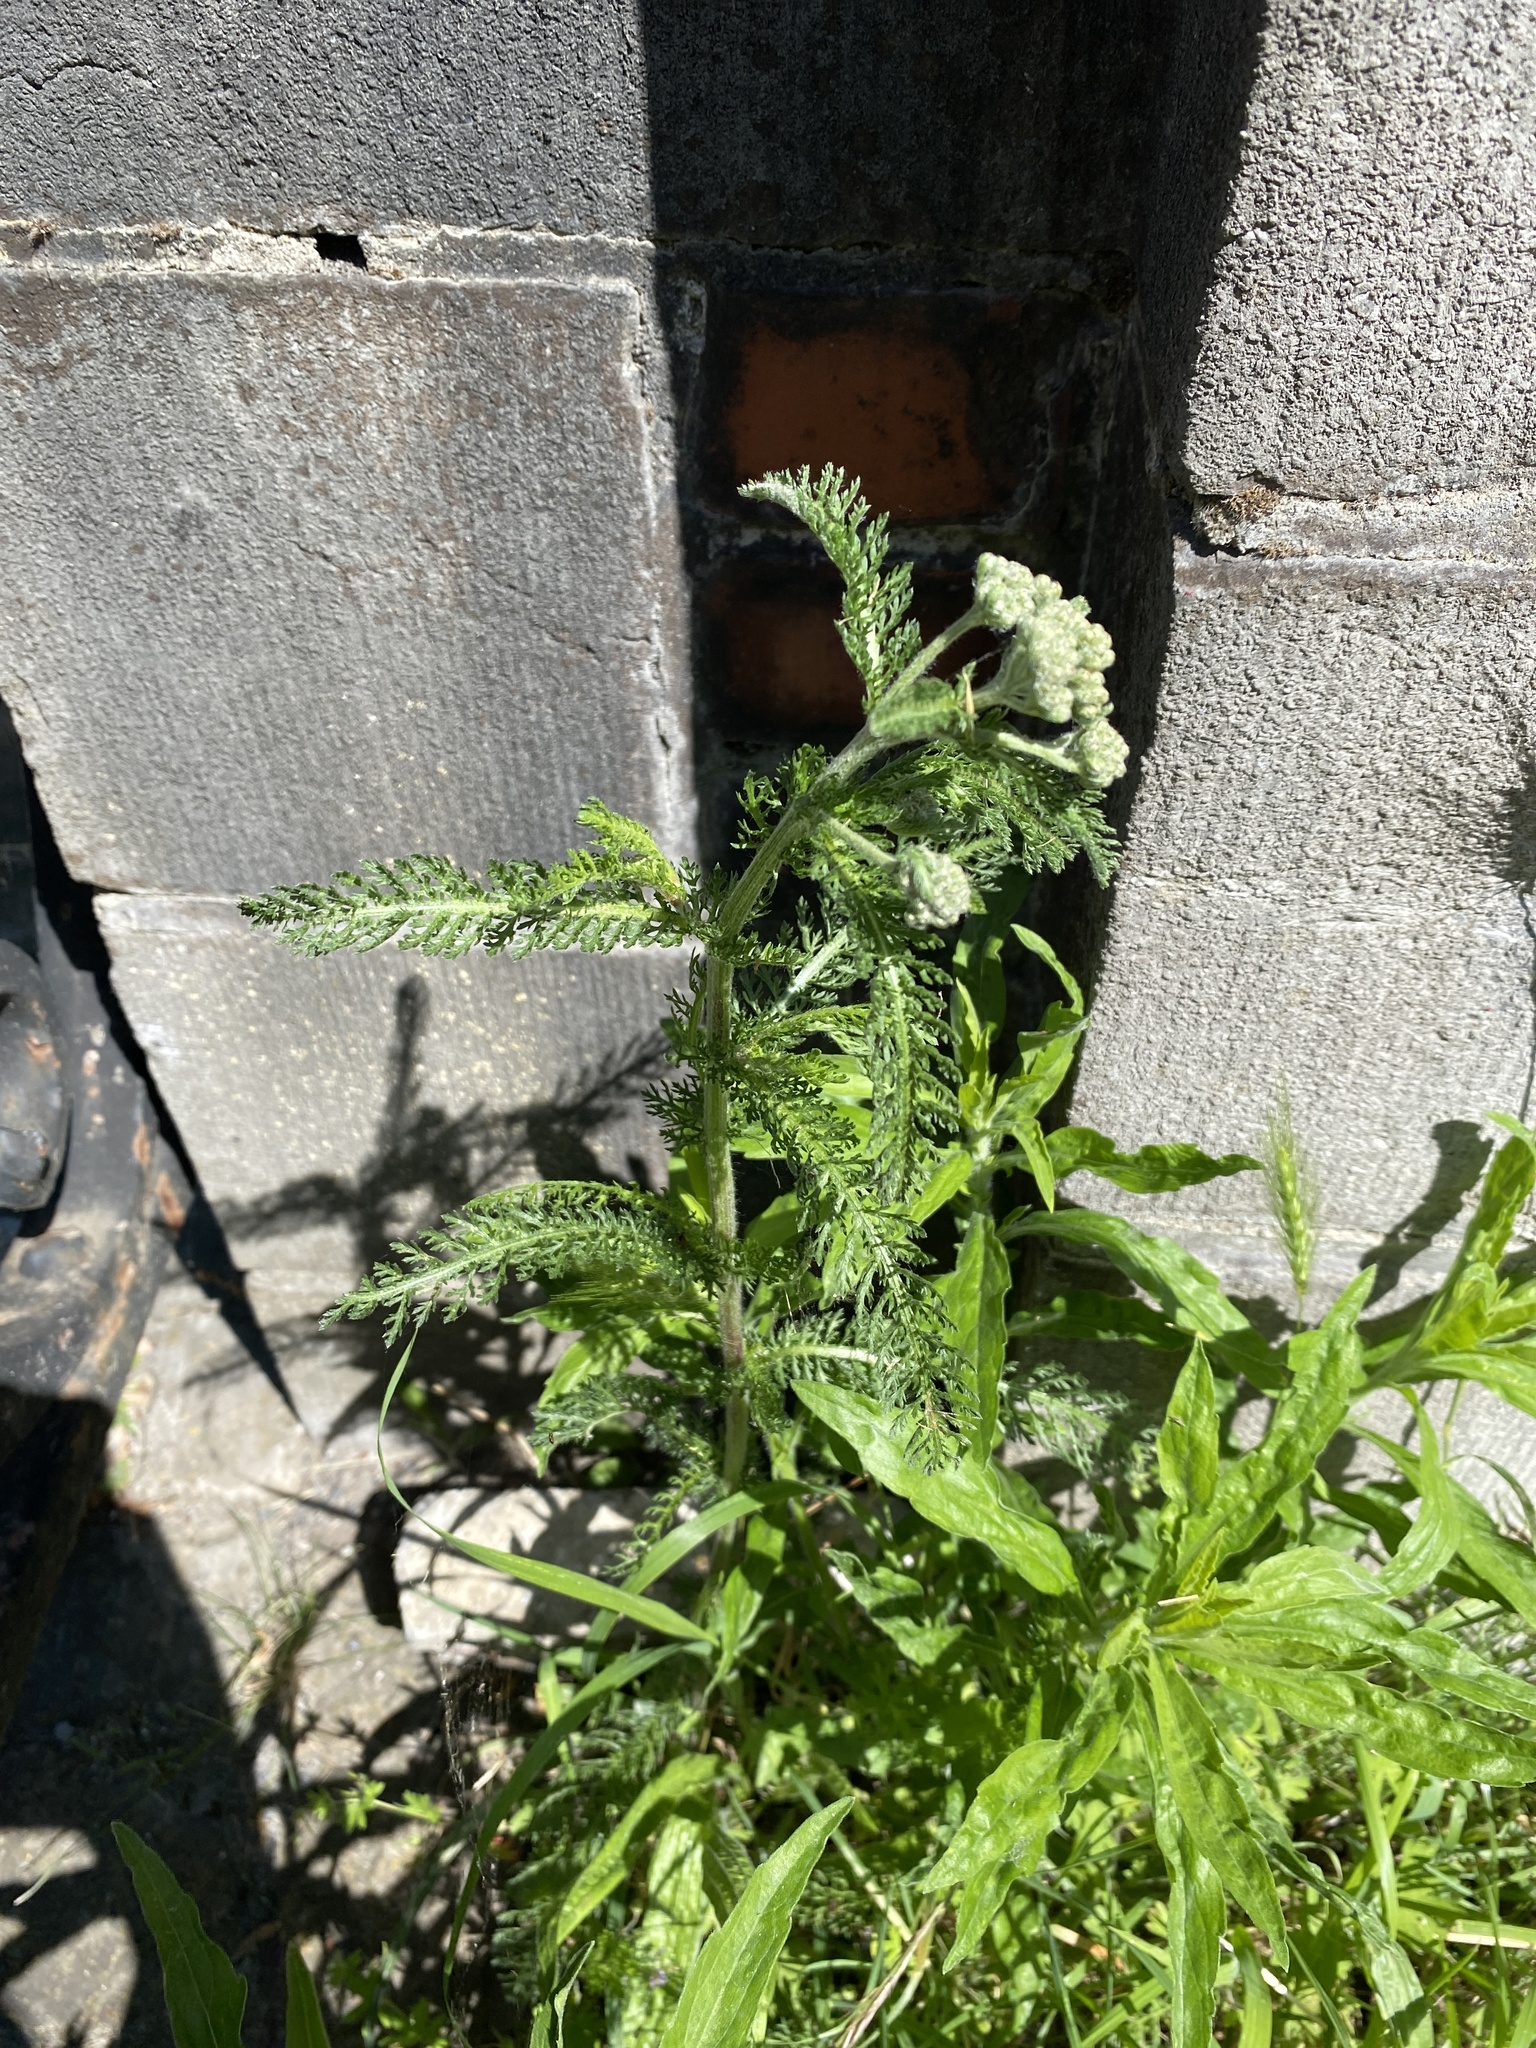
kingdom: Plantae
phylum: Tracheophyta
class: Magnoliopsida
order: Asterales
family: Asteraceae
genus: Achillea
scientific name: Achillea millefolium
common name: Yarrow
